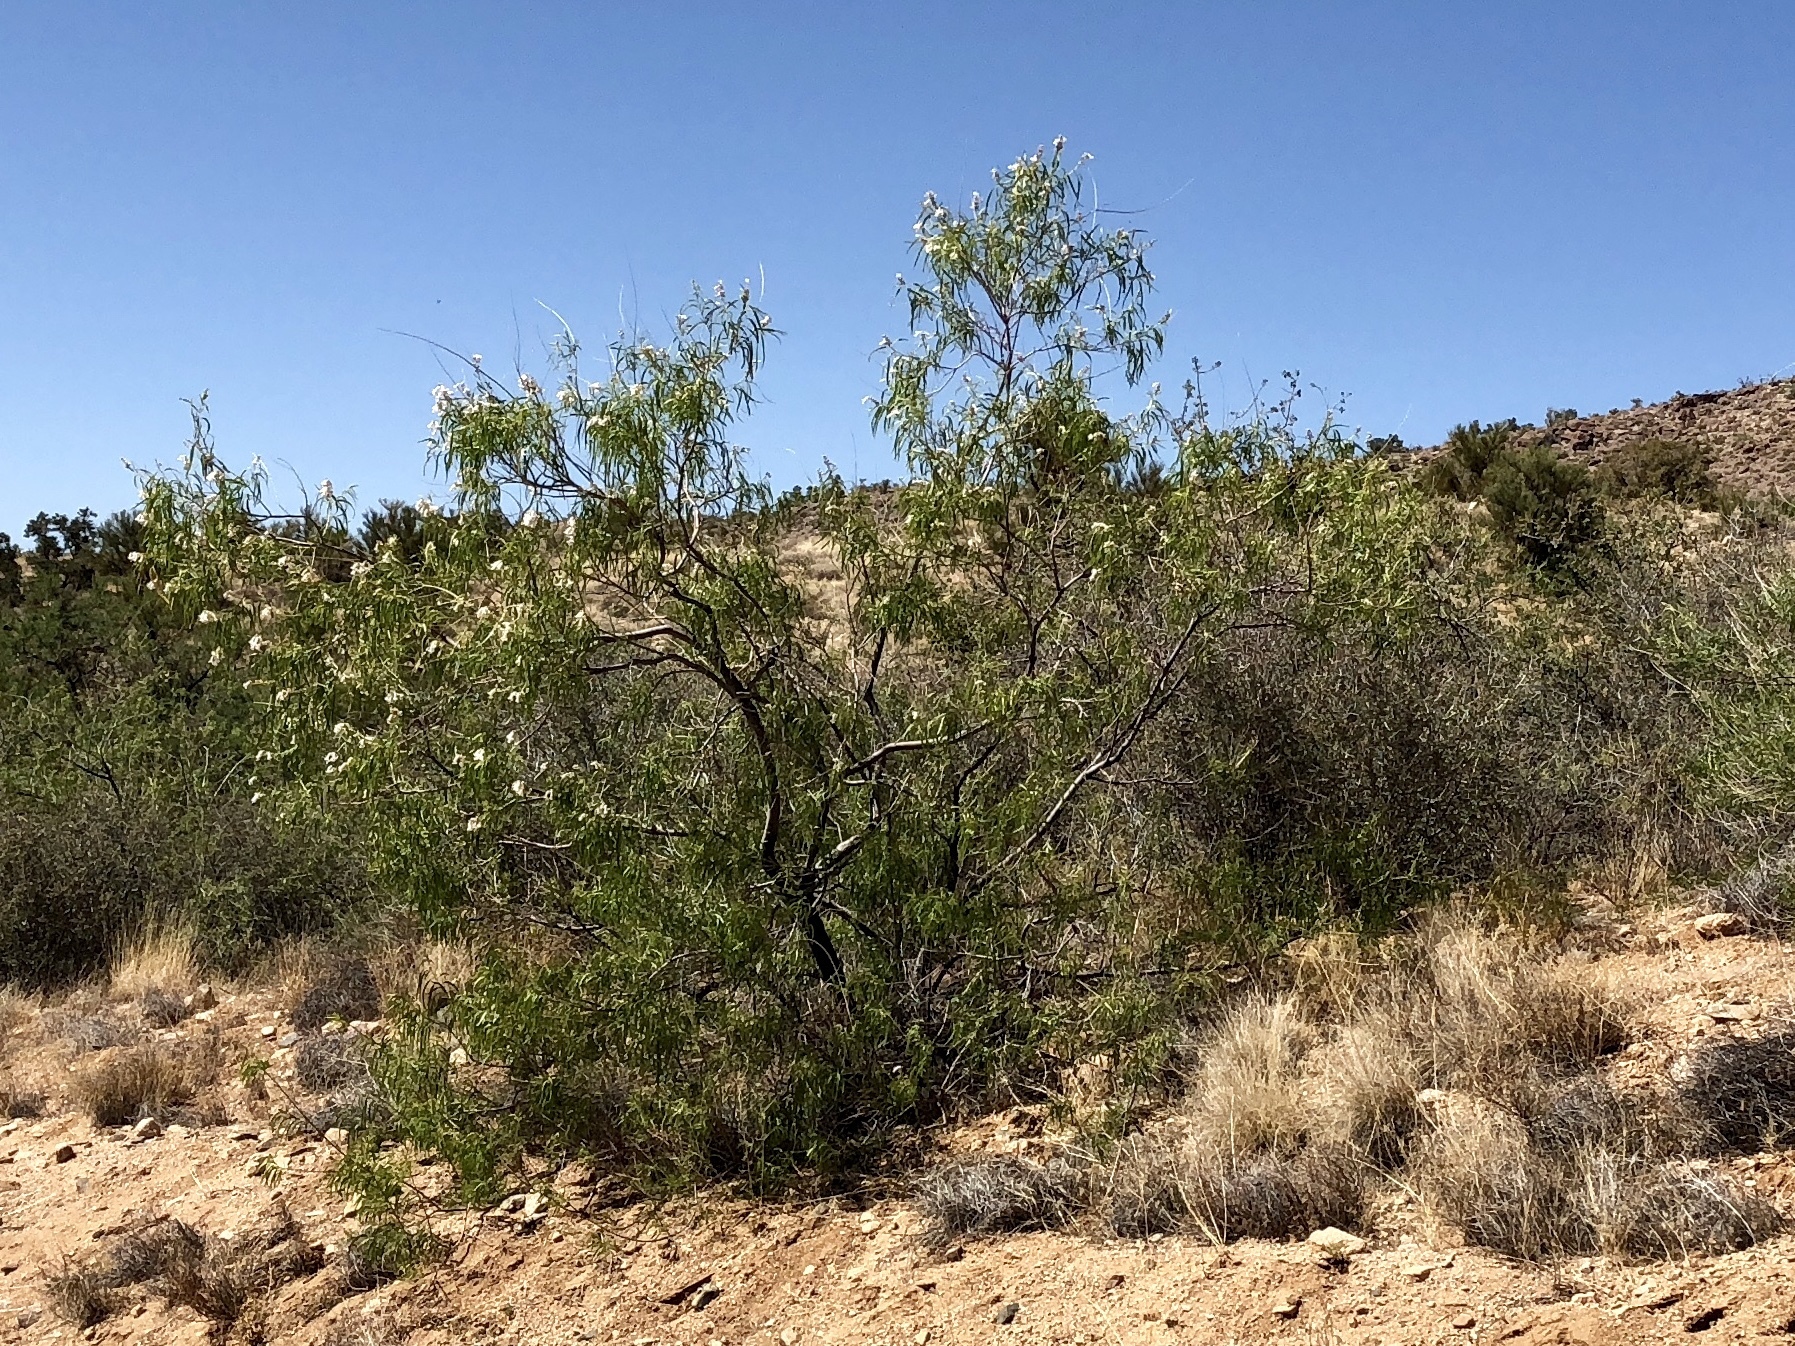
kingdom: Plantae
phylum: Tracheophyta
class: Magnoliopsida
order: Lamiales
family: Bignoniaceae
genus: Chilopsis
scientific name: Chilopsis linearis
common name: Desert-willow
